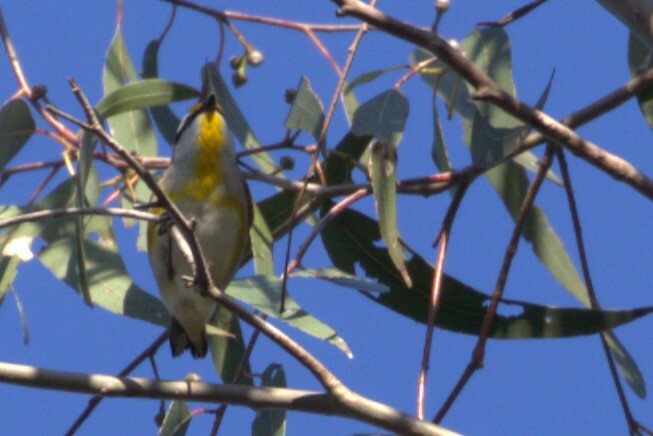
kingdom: Animalia
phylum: Chordata
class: Aves
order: Passeriformes
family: Pardalotidae
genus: Pardalotus
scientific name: Pardalotus striatus
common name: Striated pardalote
